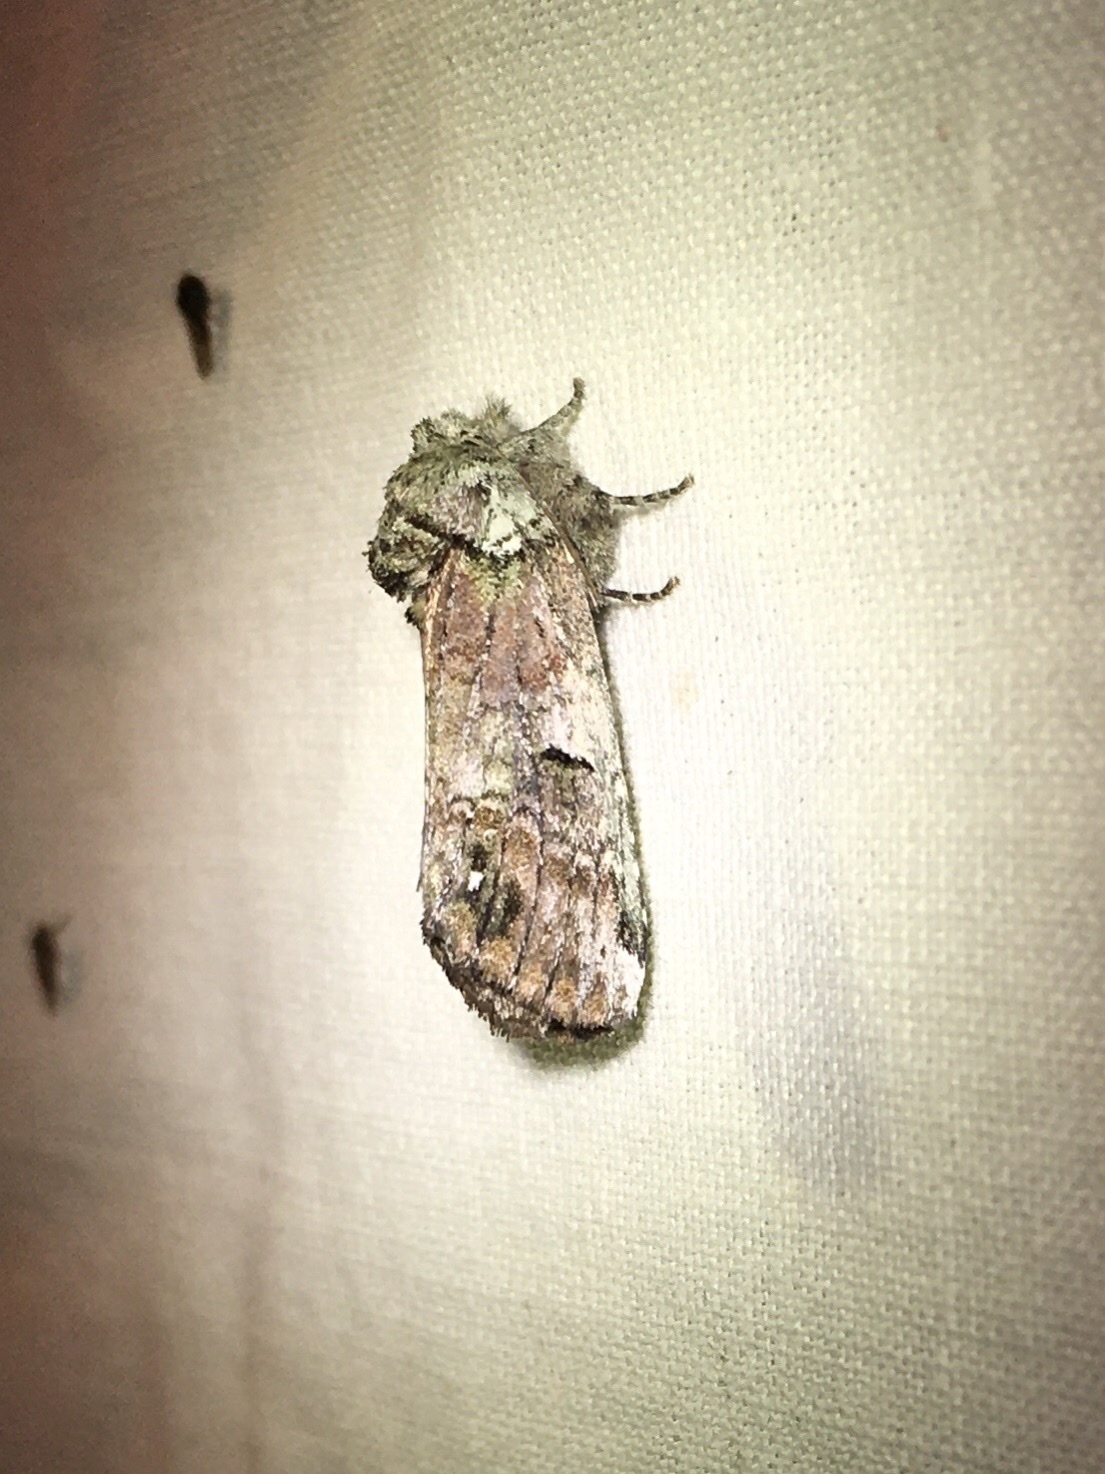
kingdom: Animalia
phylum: Arthropoda
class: Insecta
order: Lepidoptera
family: Notodontidae
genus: Schizura
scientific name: Schizura
